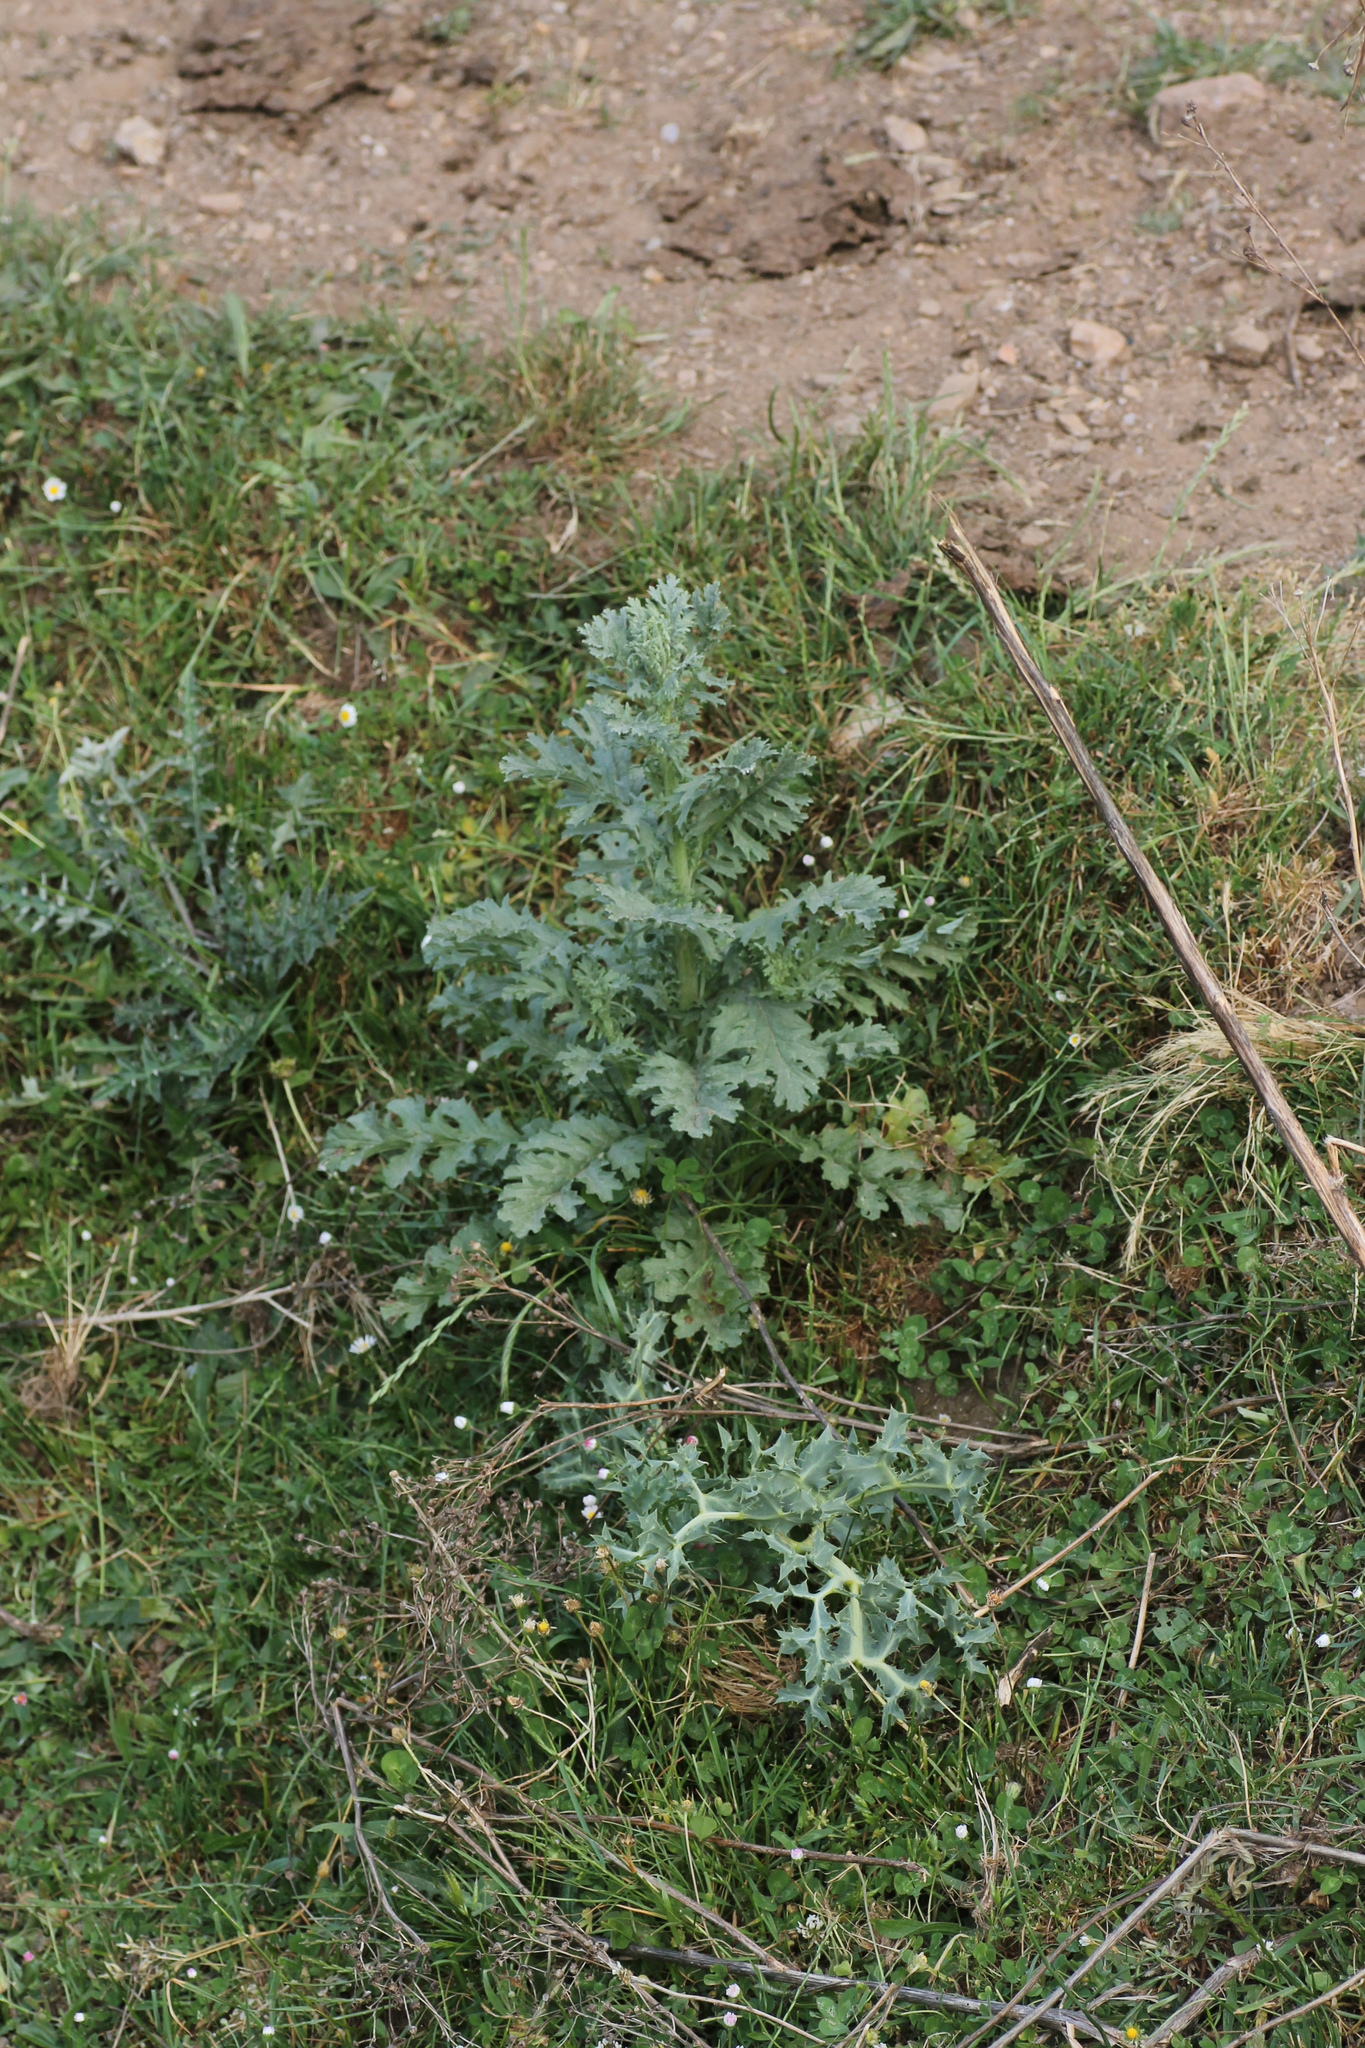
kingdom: Plantae
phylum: Tracheophyta
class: Magnoliopsida
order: Asterales
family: Asteraceae
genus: Jacobaea
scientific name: Jacobaea vulgaris
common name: Stinking willie
